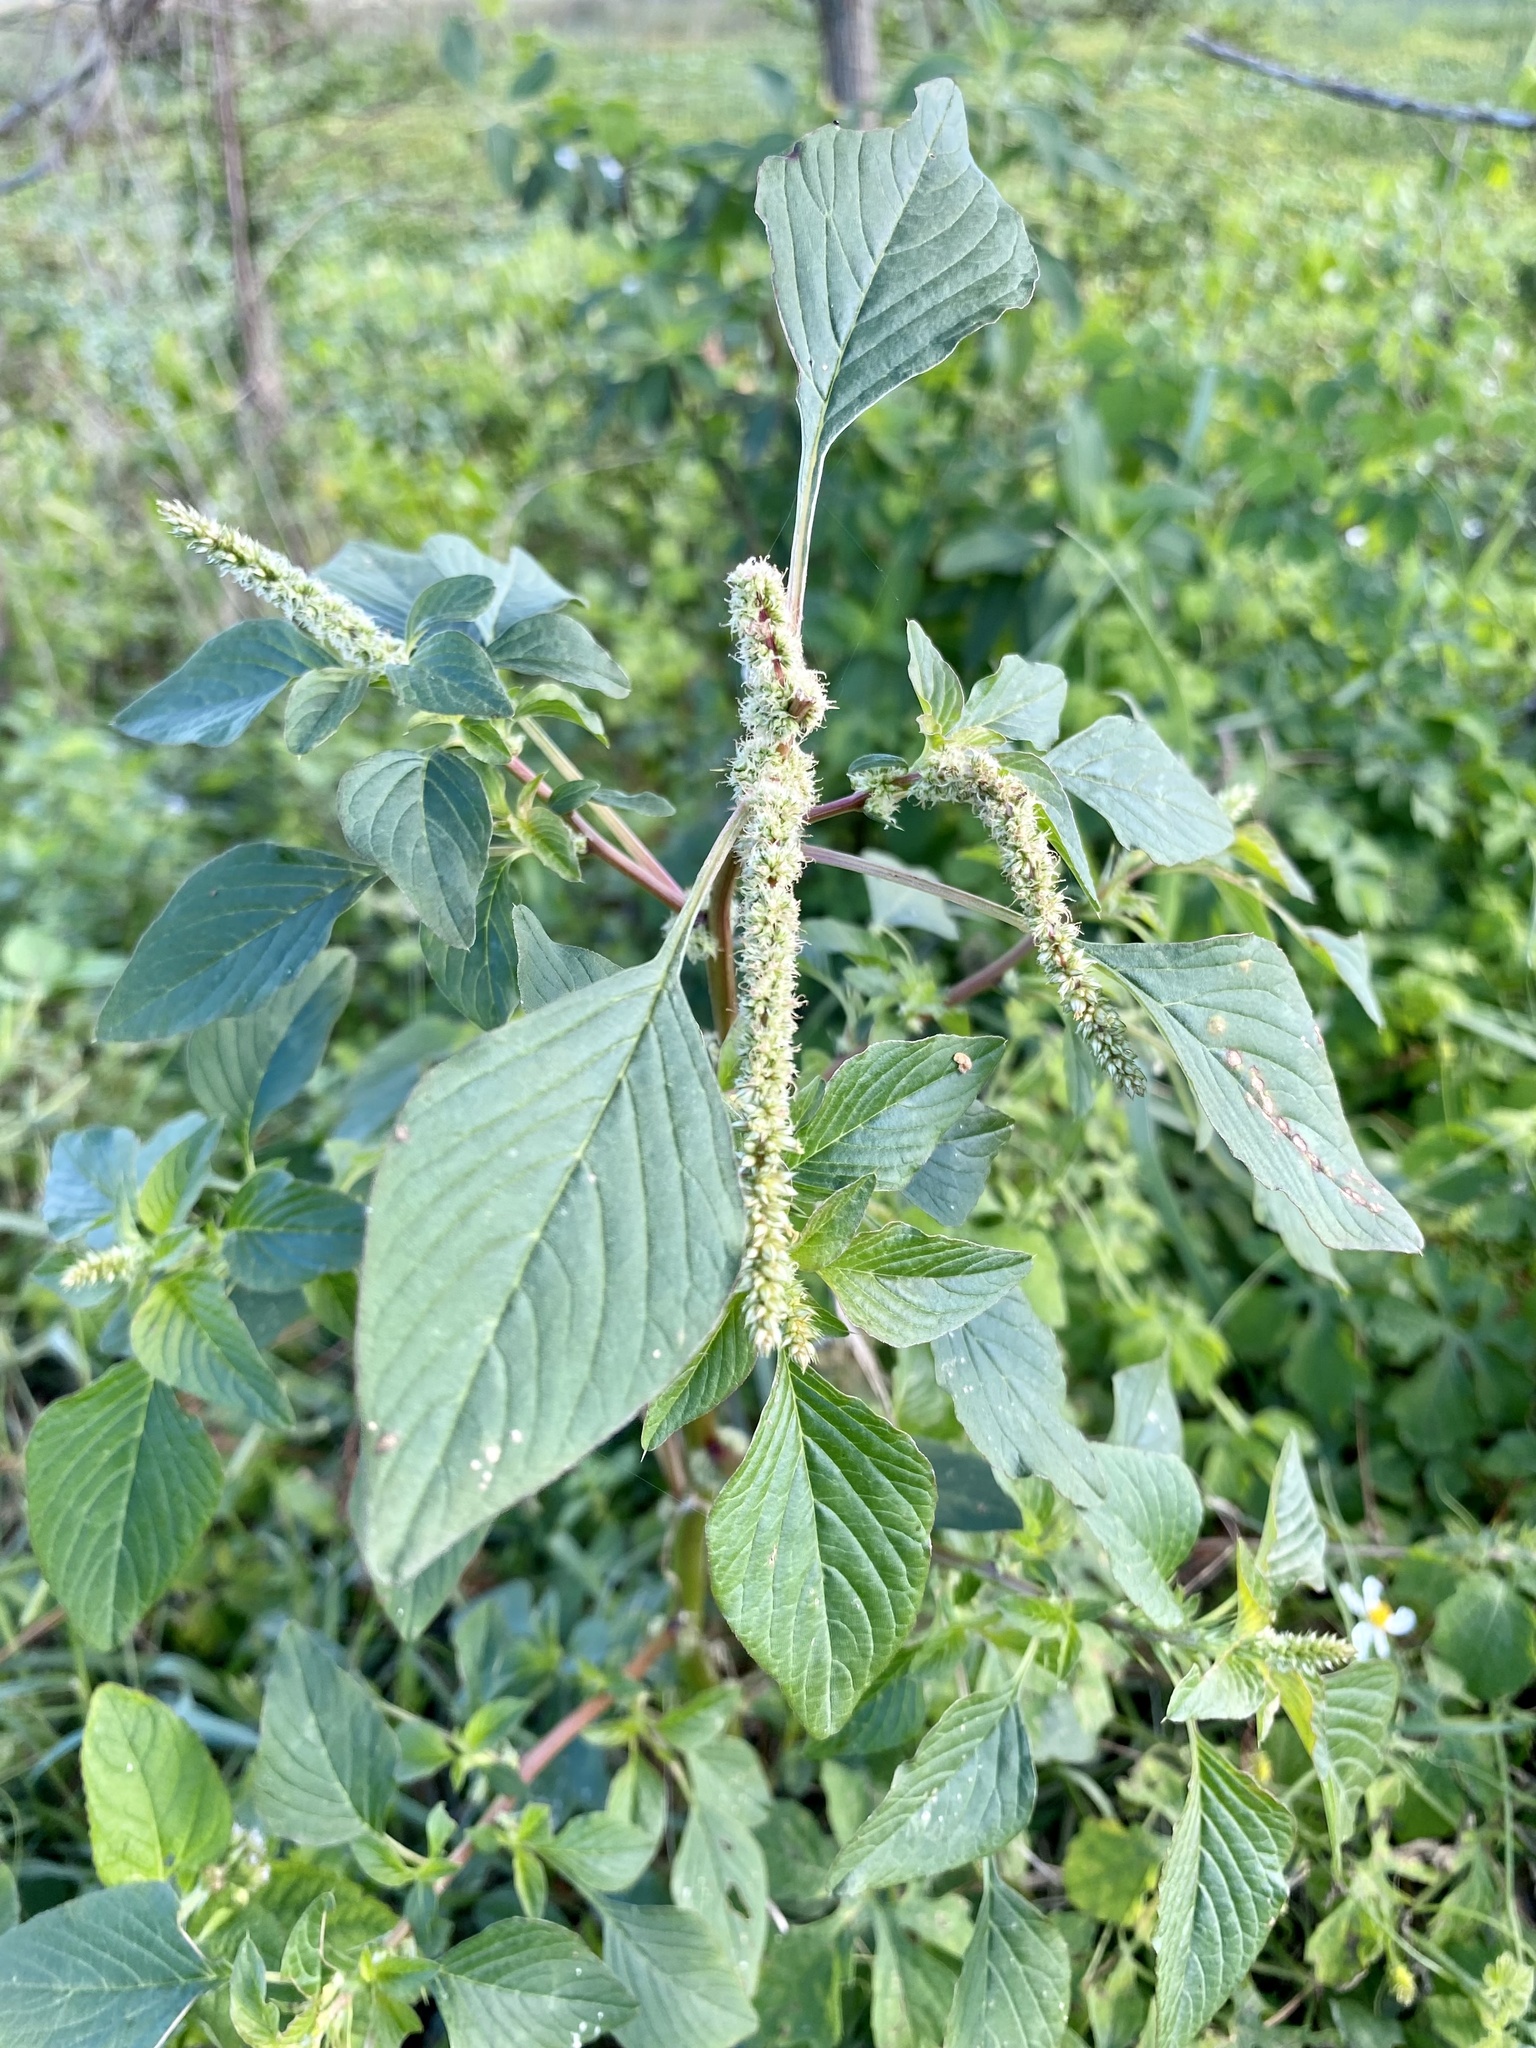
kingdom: Plantae
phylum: Tracheophyta
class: Magnoliopsida
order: Caryophyllales
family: Amaranthaceae
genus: Amaranthus
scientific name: Amaranthus spinosus
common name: Spiny amaranth
